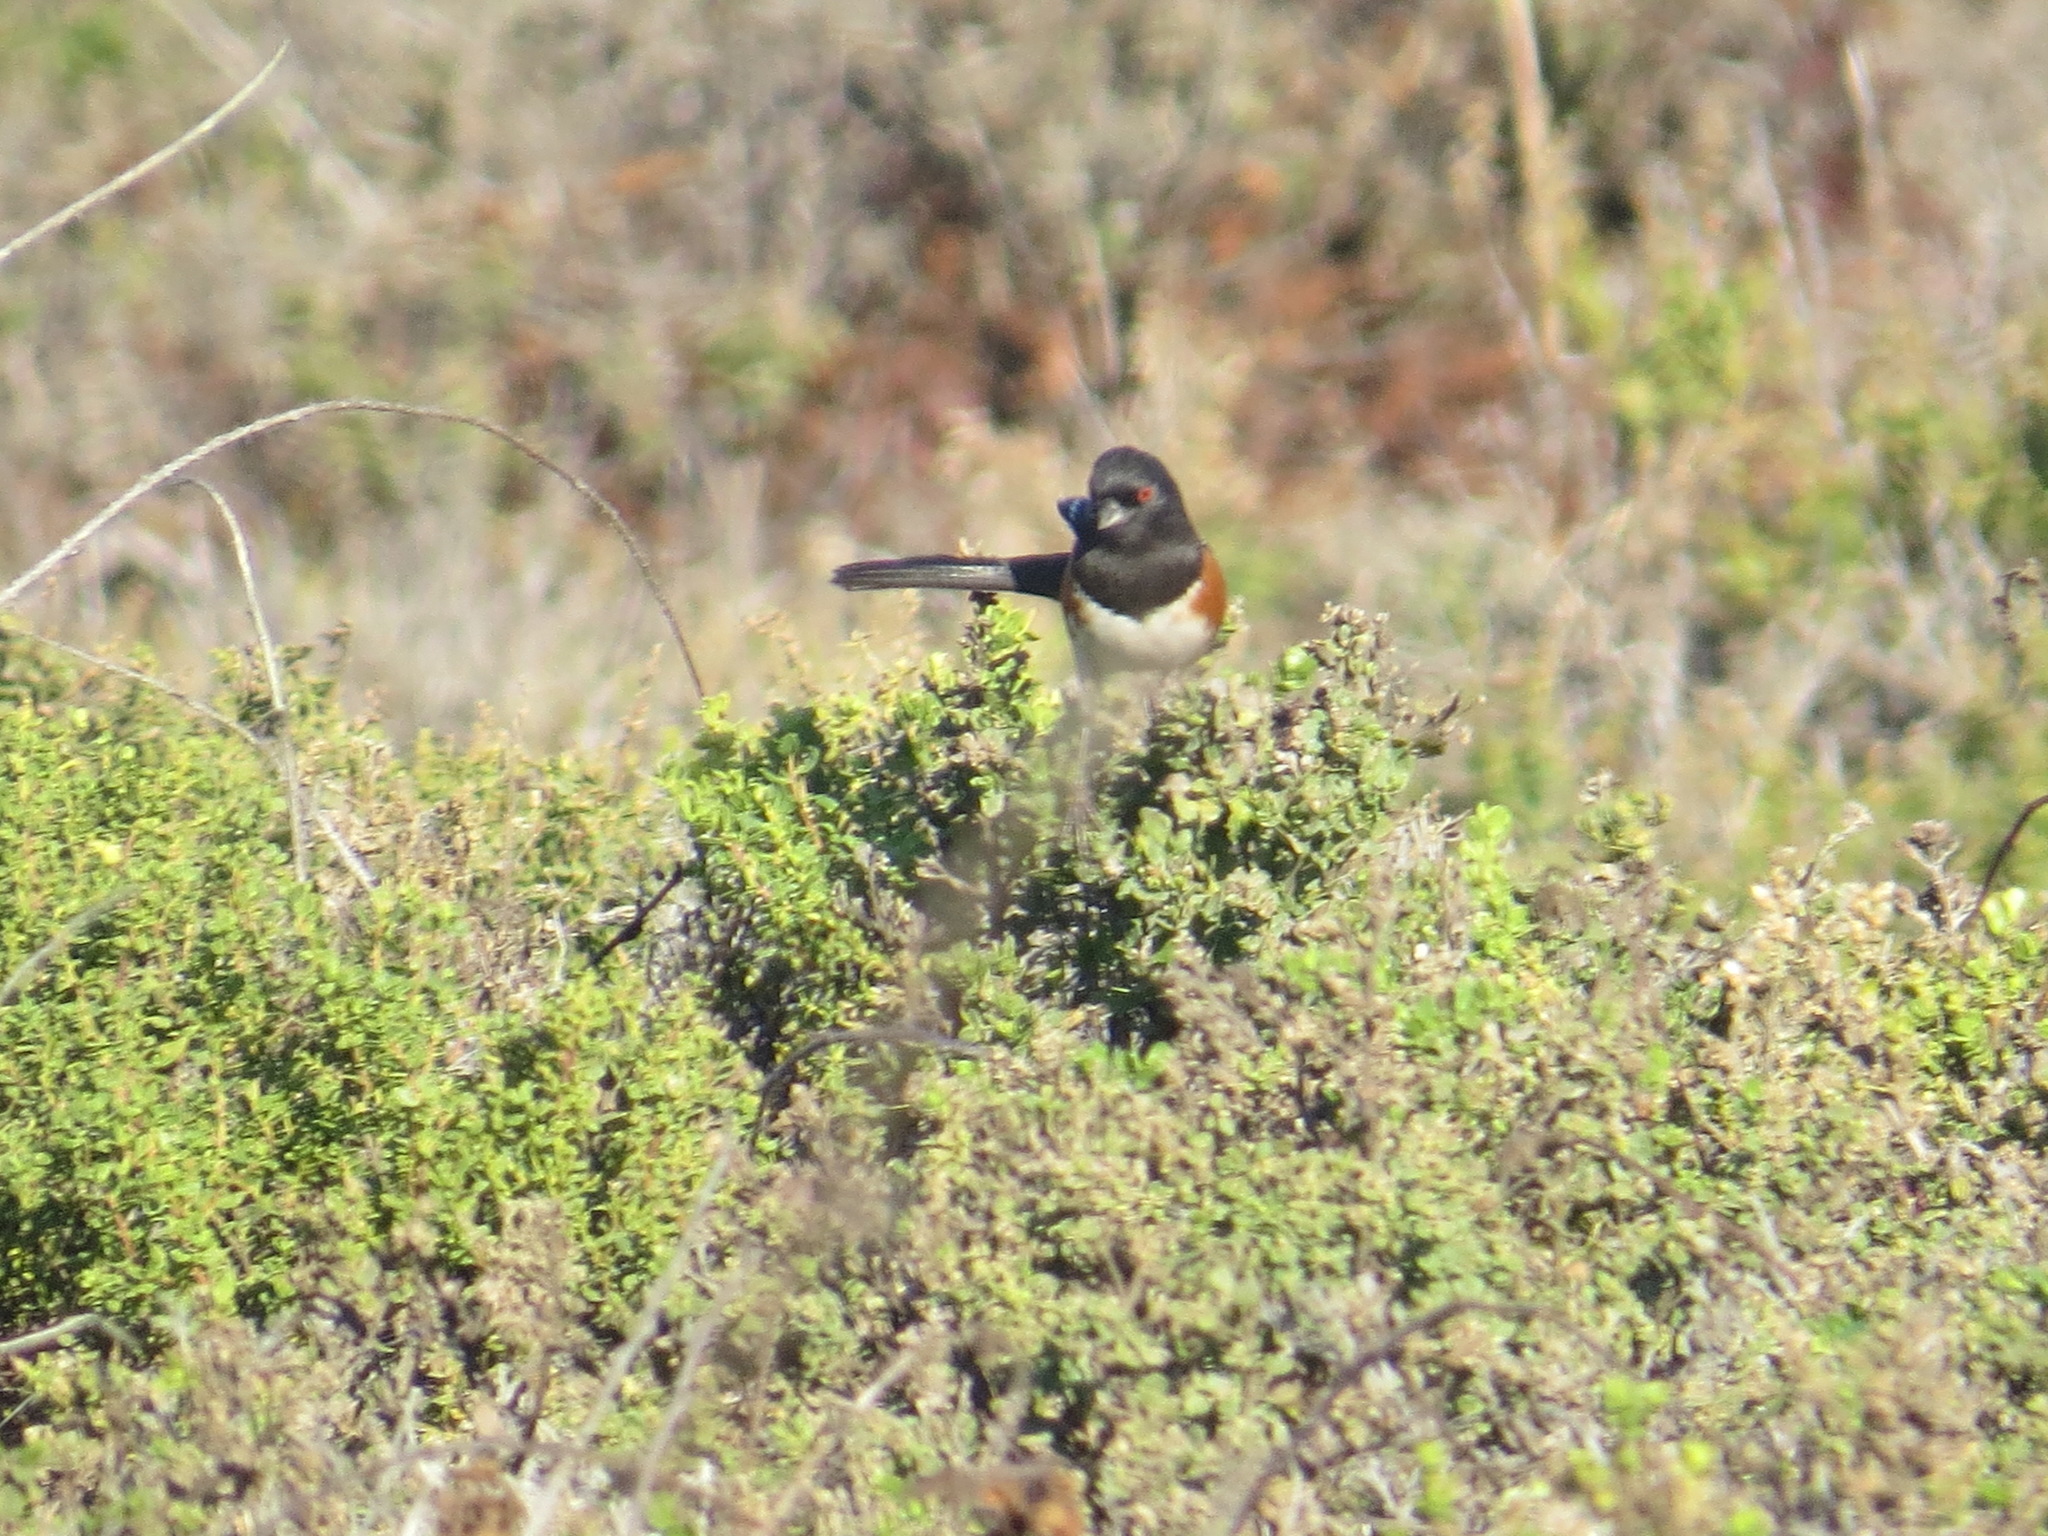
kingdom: Animalia
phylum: Chordata
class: Aves
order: Passeriformes
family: Passerellidae
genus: Pipilo
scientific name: Pipilo maculatus
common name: Spotted towhee
